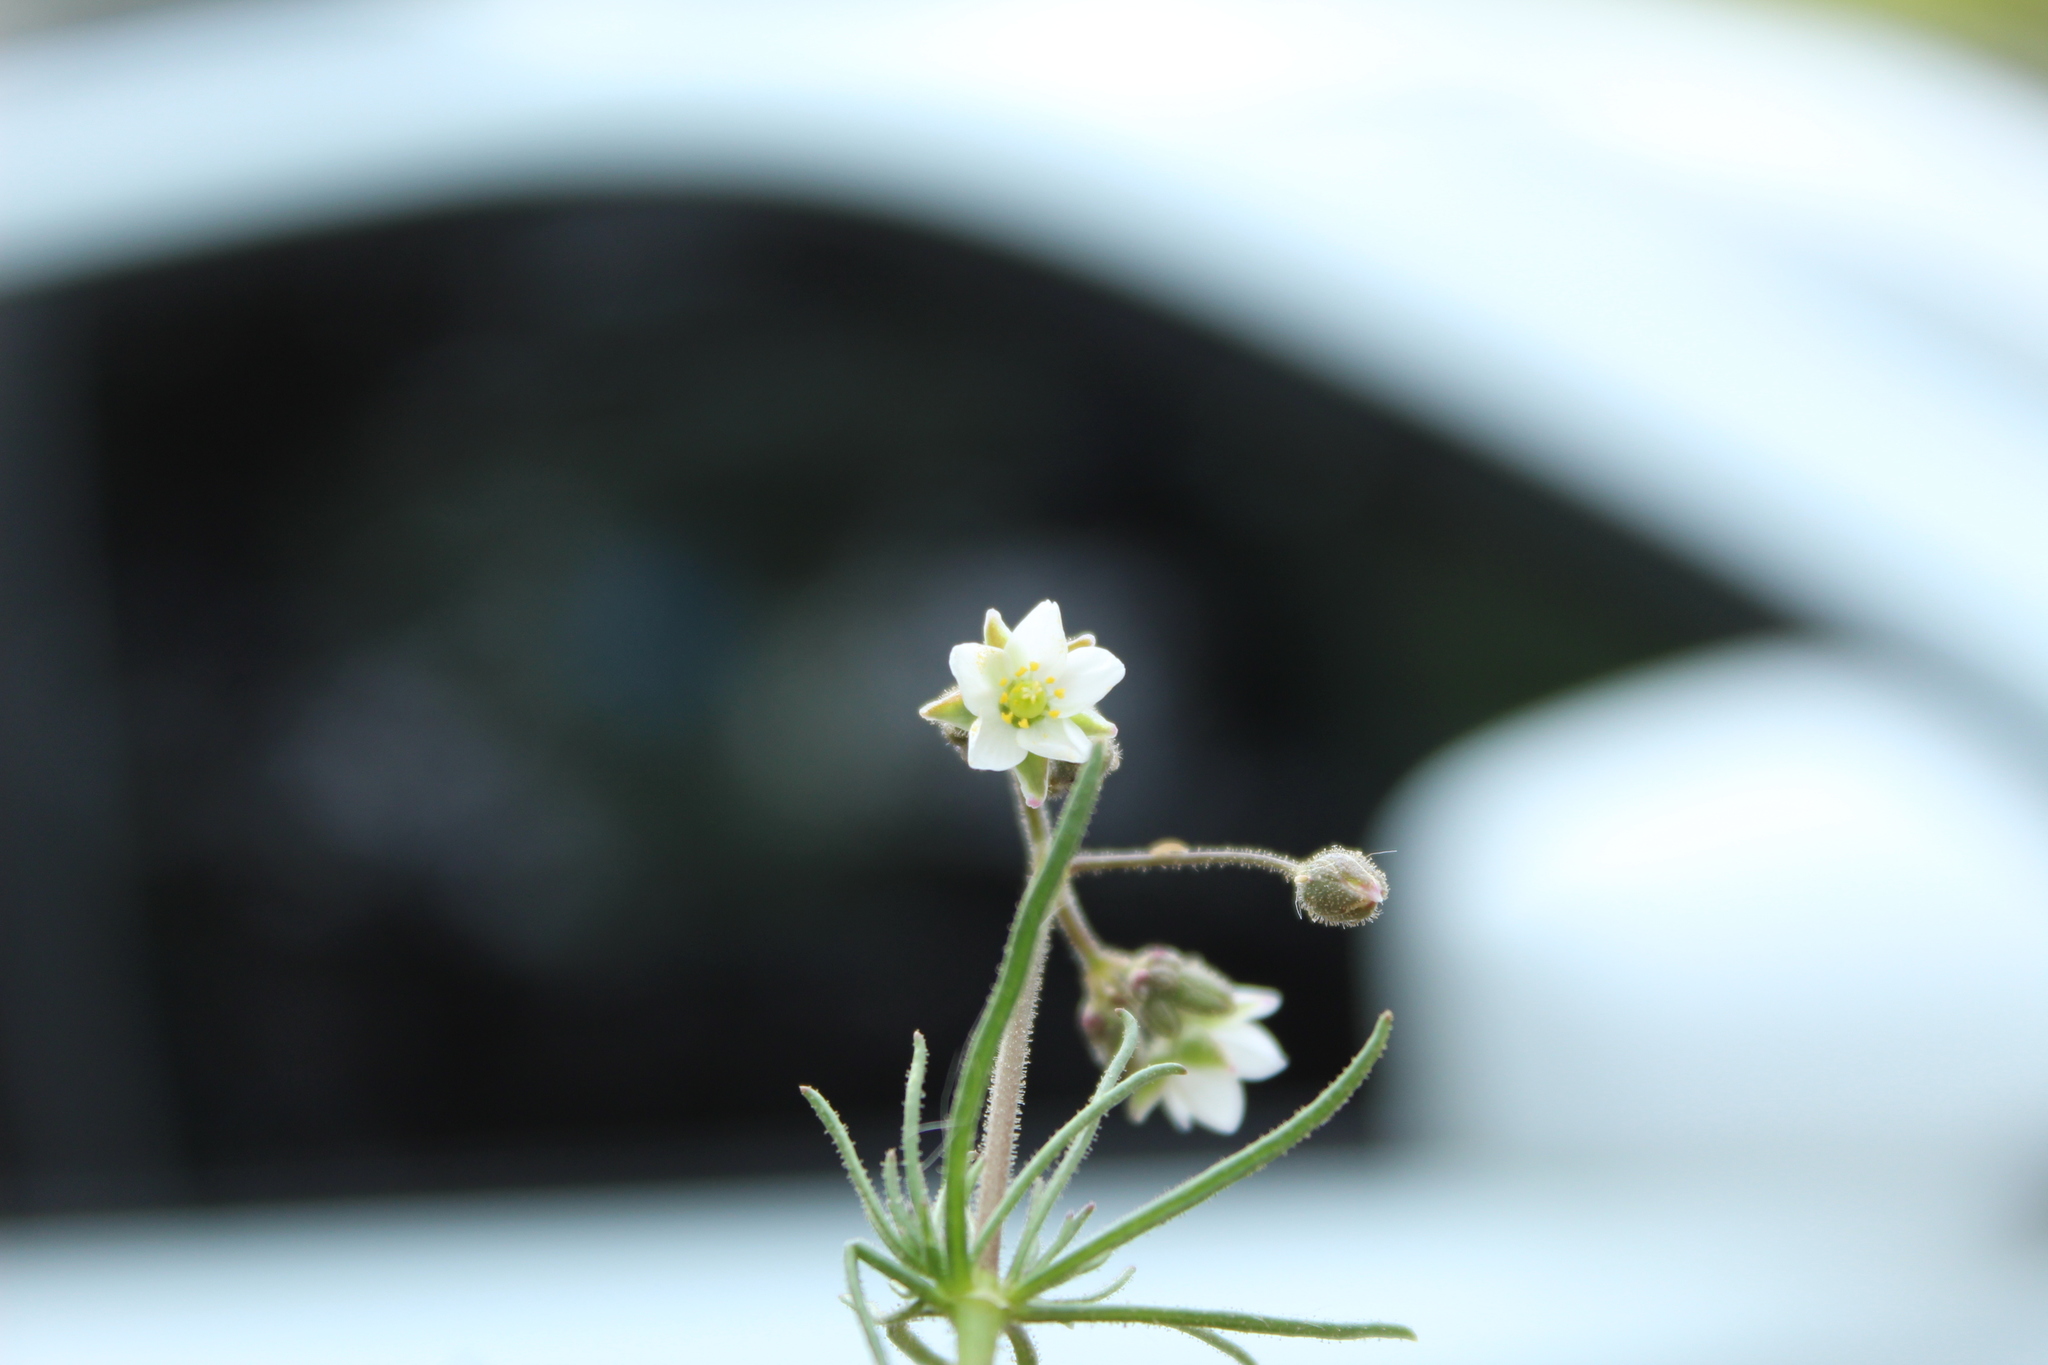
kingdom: Plantae
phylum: Tracheophyta
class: Magnoliopsida
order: Caryophyllales
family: Caryophyllaceae
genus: Spergula
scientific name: Spergula arvensis
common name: Corn spurrey
